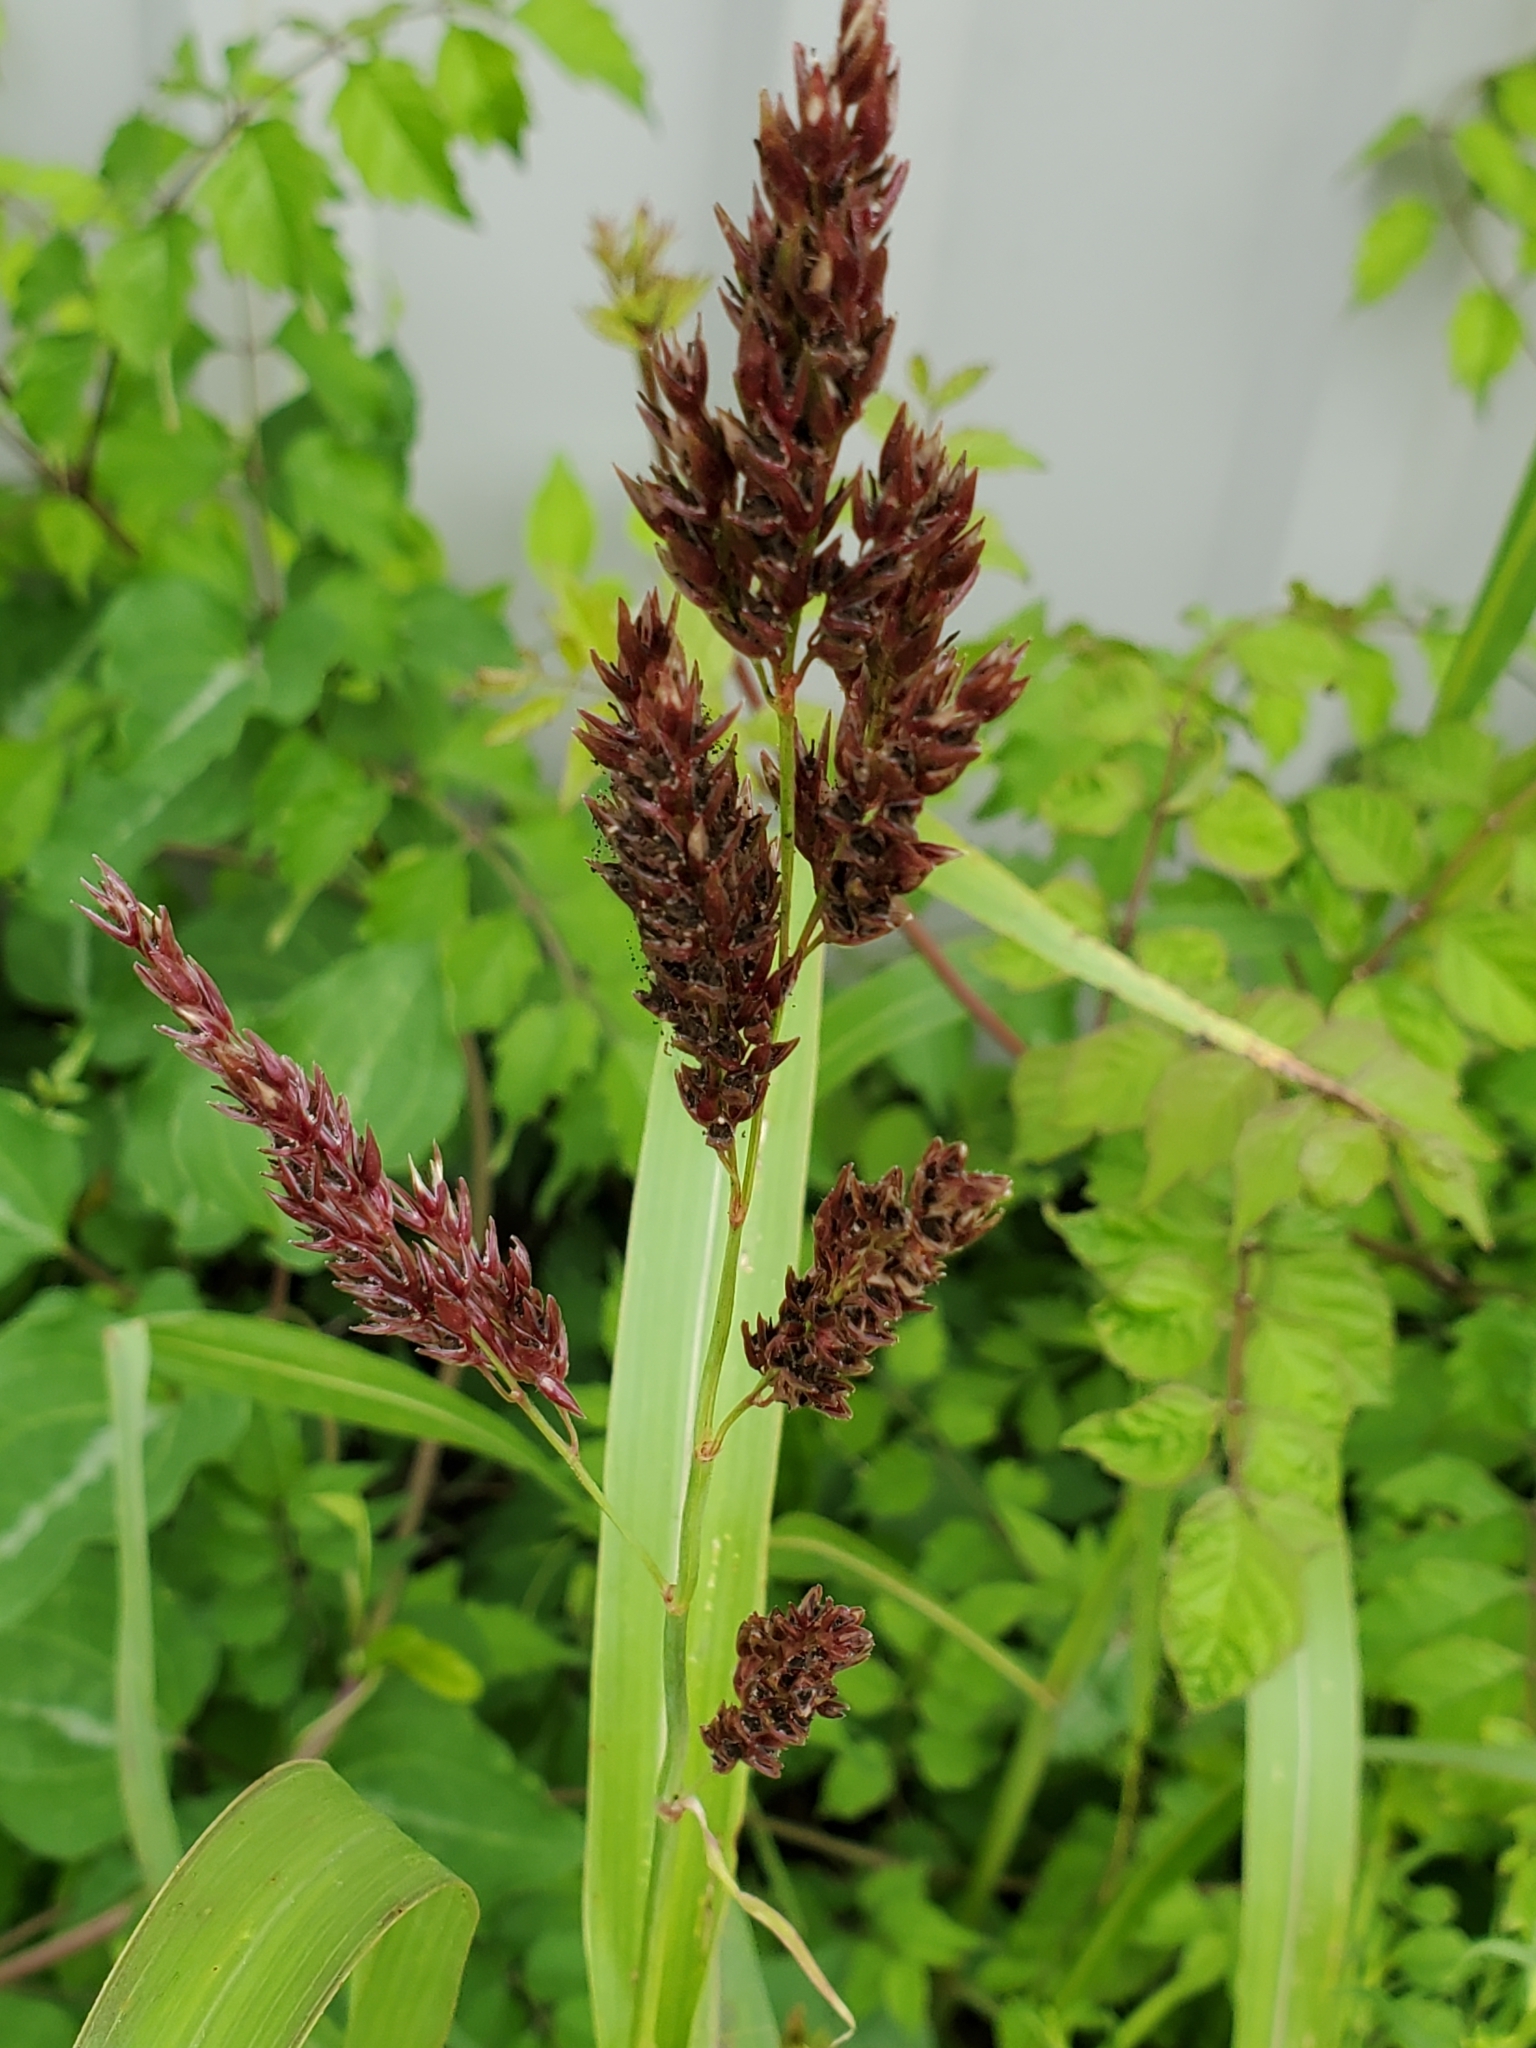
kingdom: Plantae
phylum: Tracheophyta
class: Liliopsida
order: Poales
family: Poaceae
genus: Sorghum
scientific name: Sorghum halepense
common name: Johnson-grass
